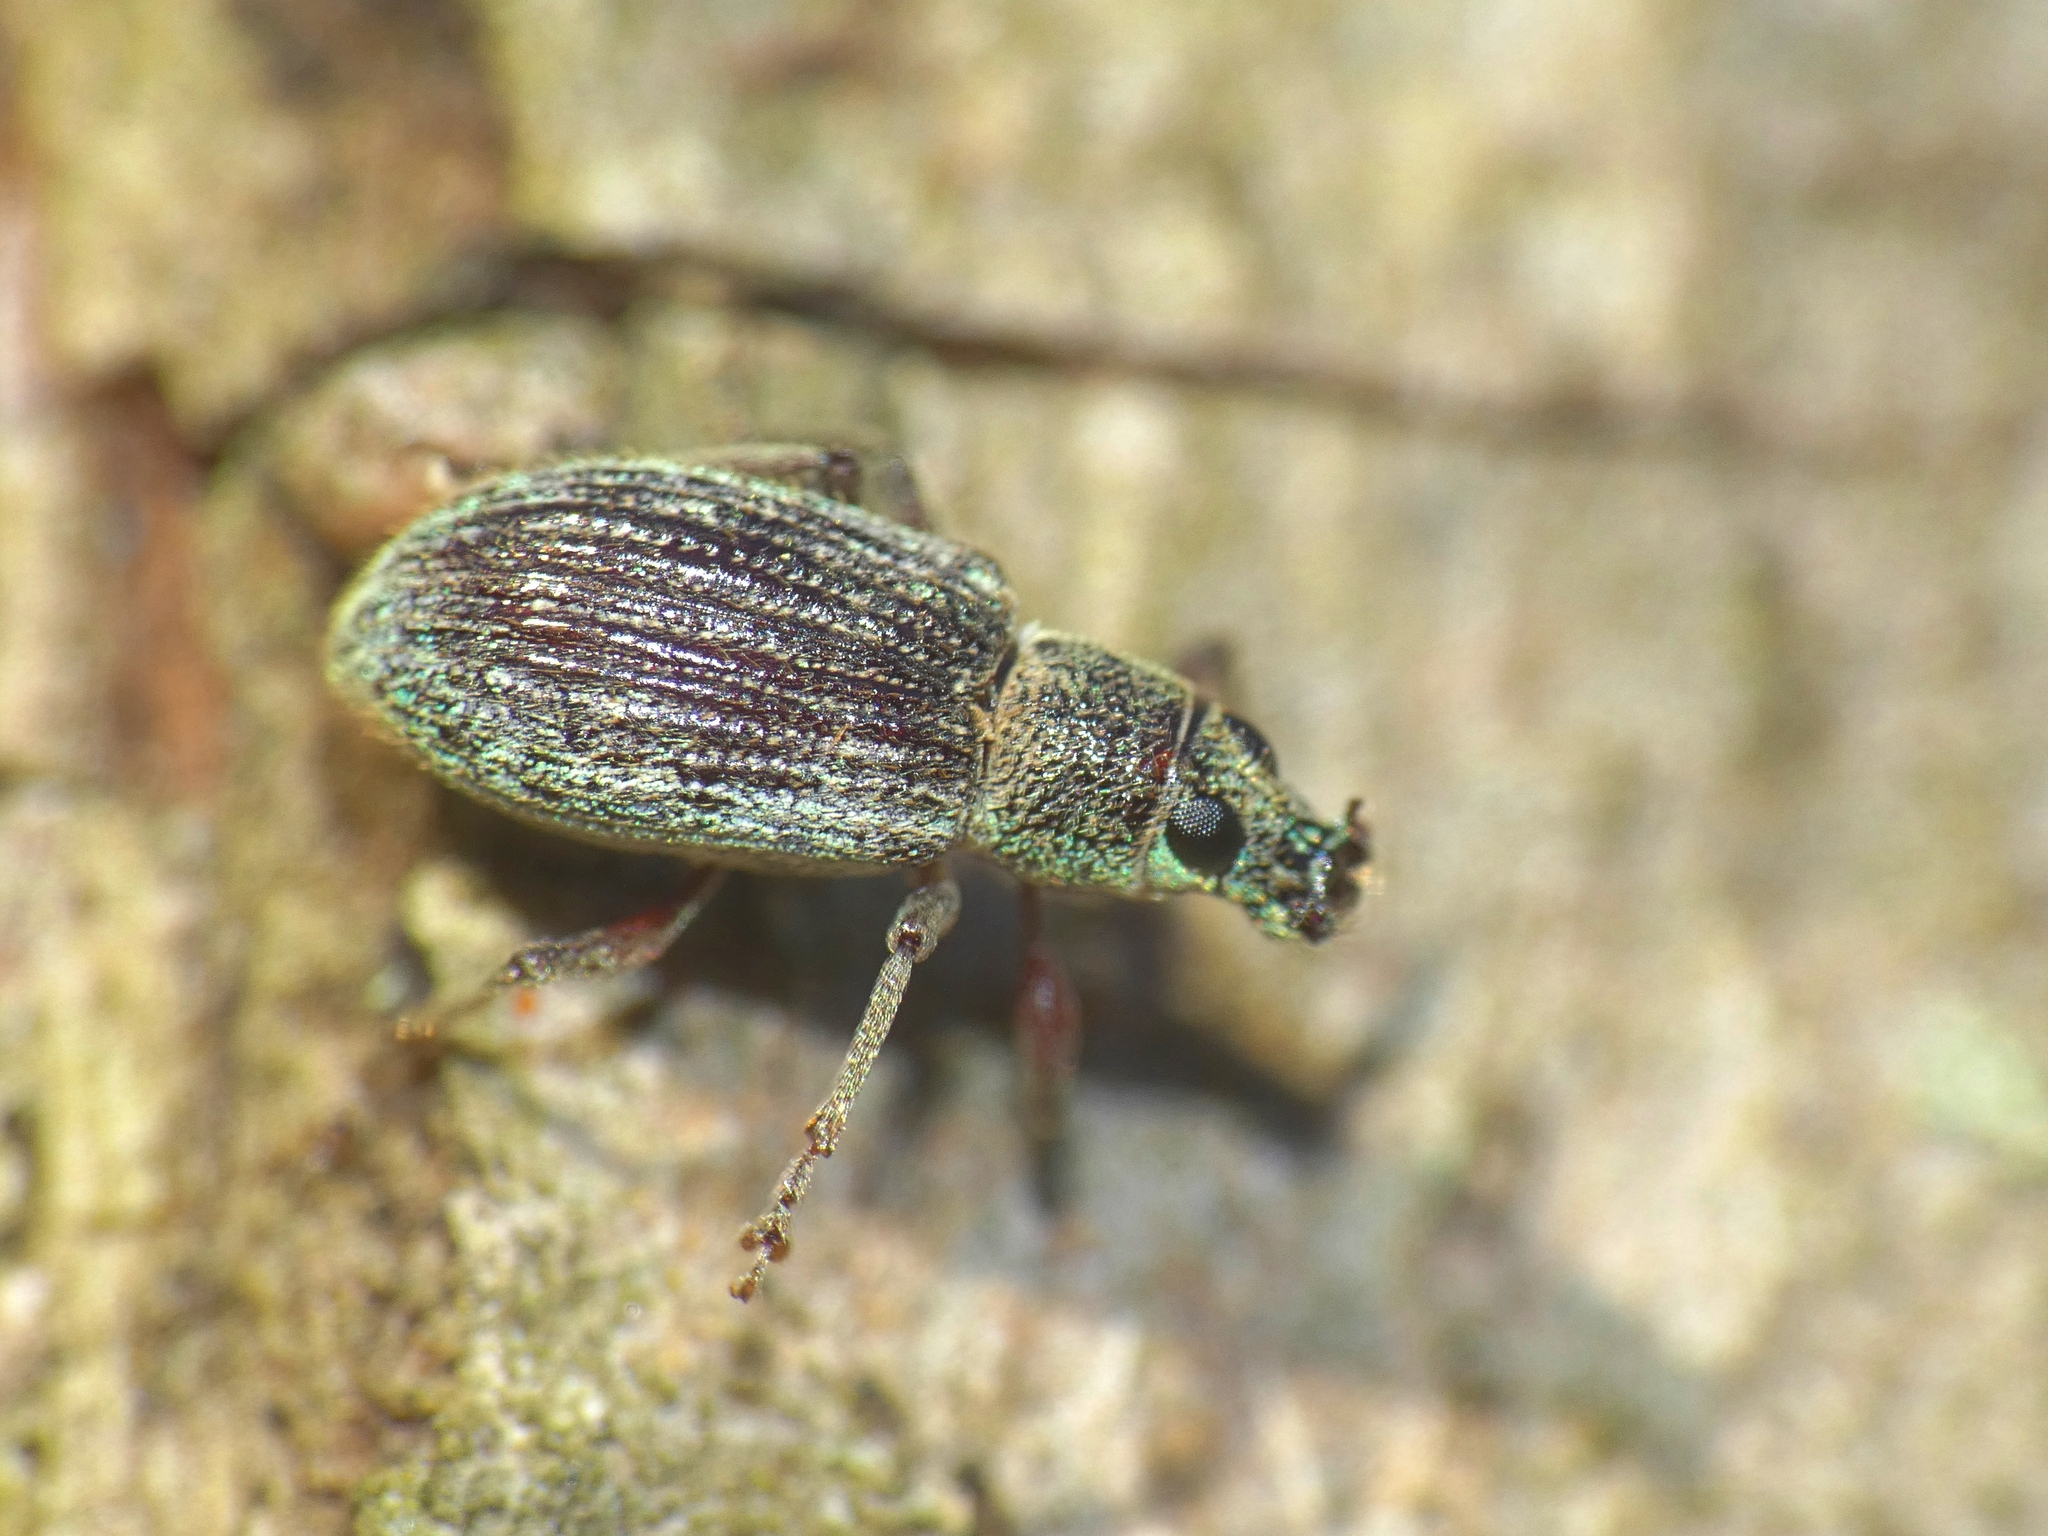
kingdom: Animalia
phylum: Arthropoda
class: Insecta
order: Coleoptera
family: Curculionidae
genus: Cyrtepistomus
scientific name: Cyrtepistomus castaneus
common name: Weevil
